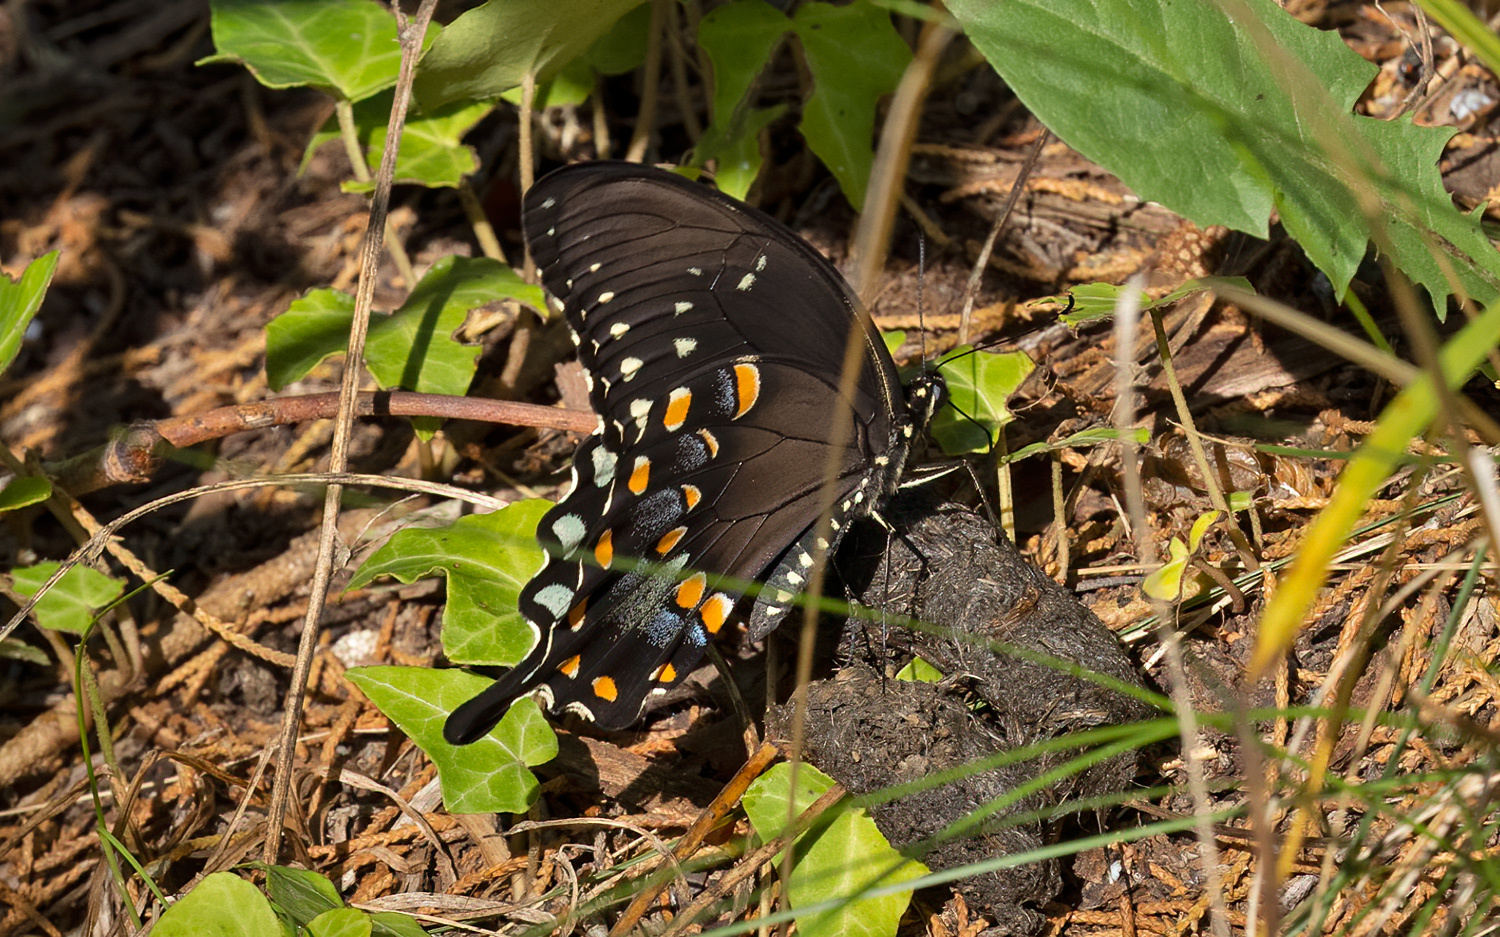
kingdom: Animalia
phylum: Arthropoda
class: Insecta
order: Lepidoptera
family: Papilionidae
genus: Papilio
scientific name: Papilio troilus
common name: Spicebush swallowtail
